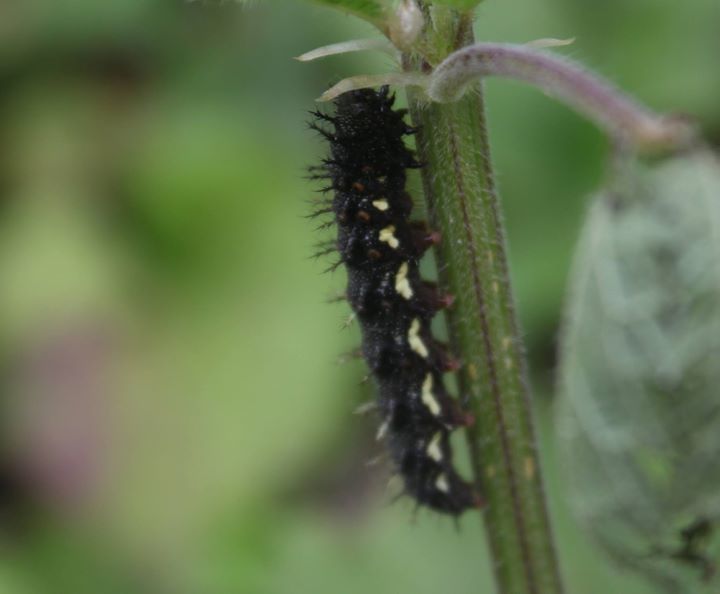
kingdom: Animalia
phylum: Arthropoda
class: Insecta
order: Lepidoptera
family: Nymphalidae
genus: Vanessa
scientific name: Vanessa atalanta
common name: Red admiral
